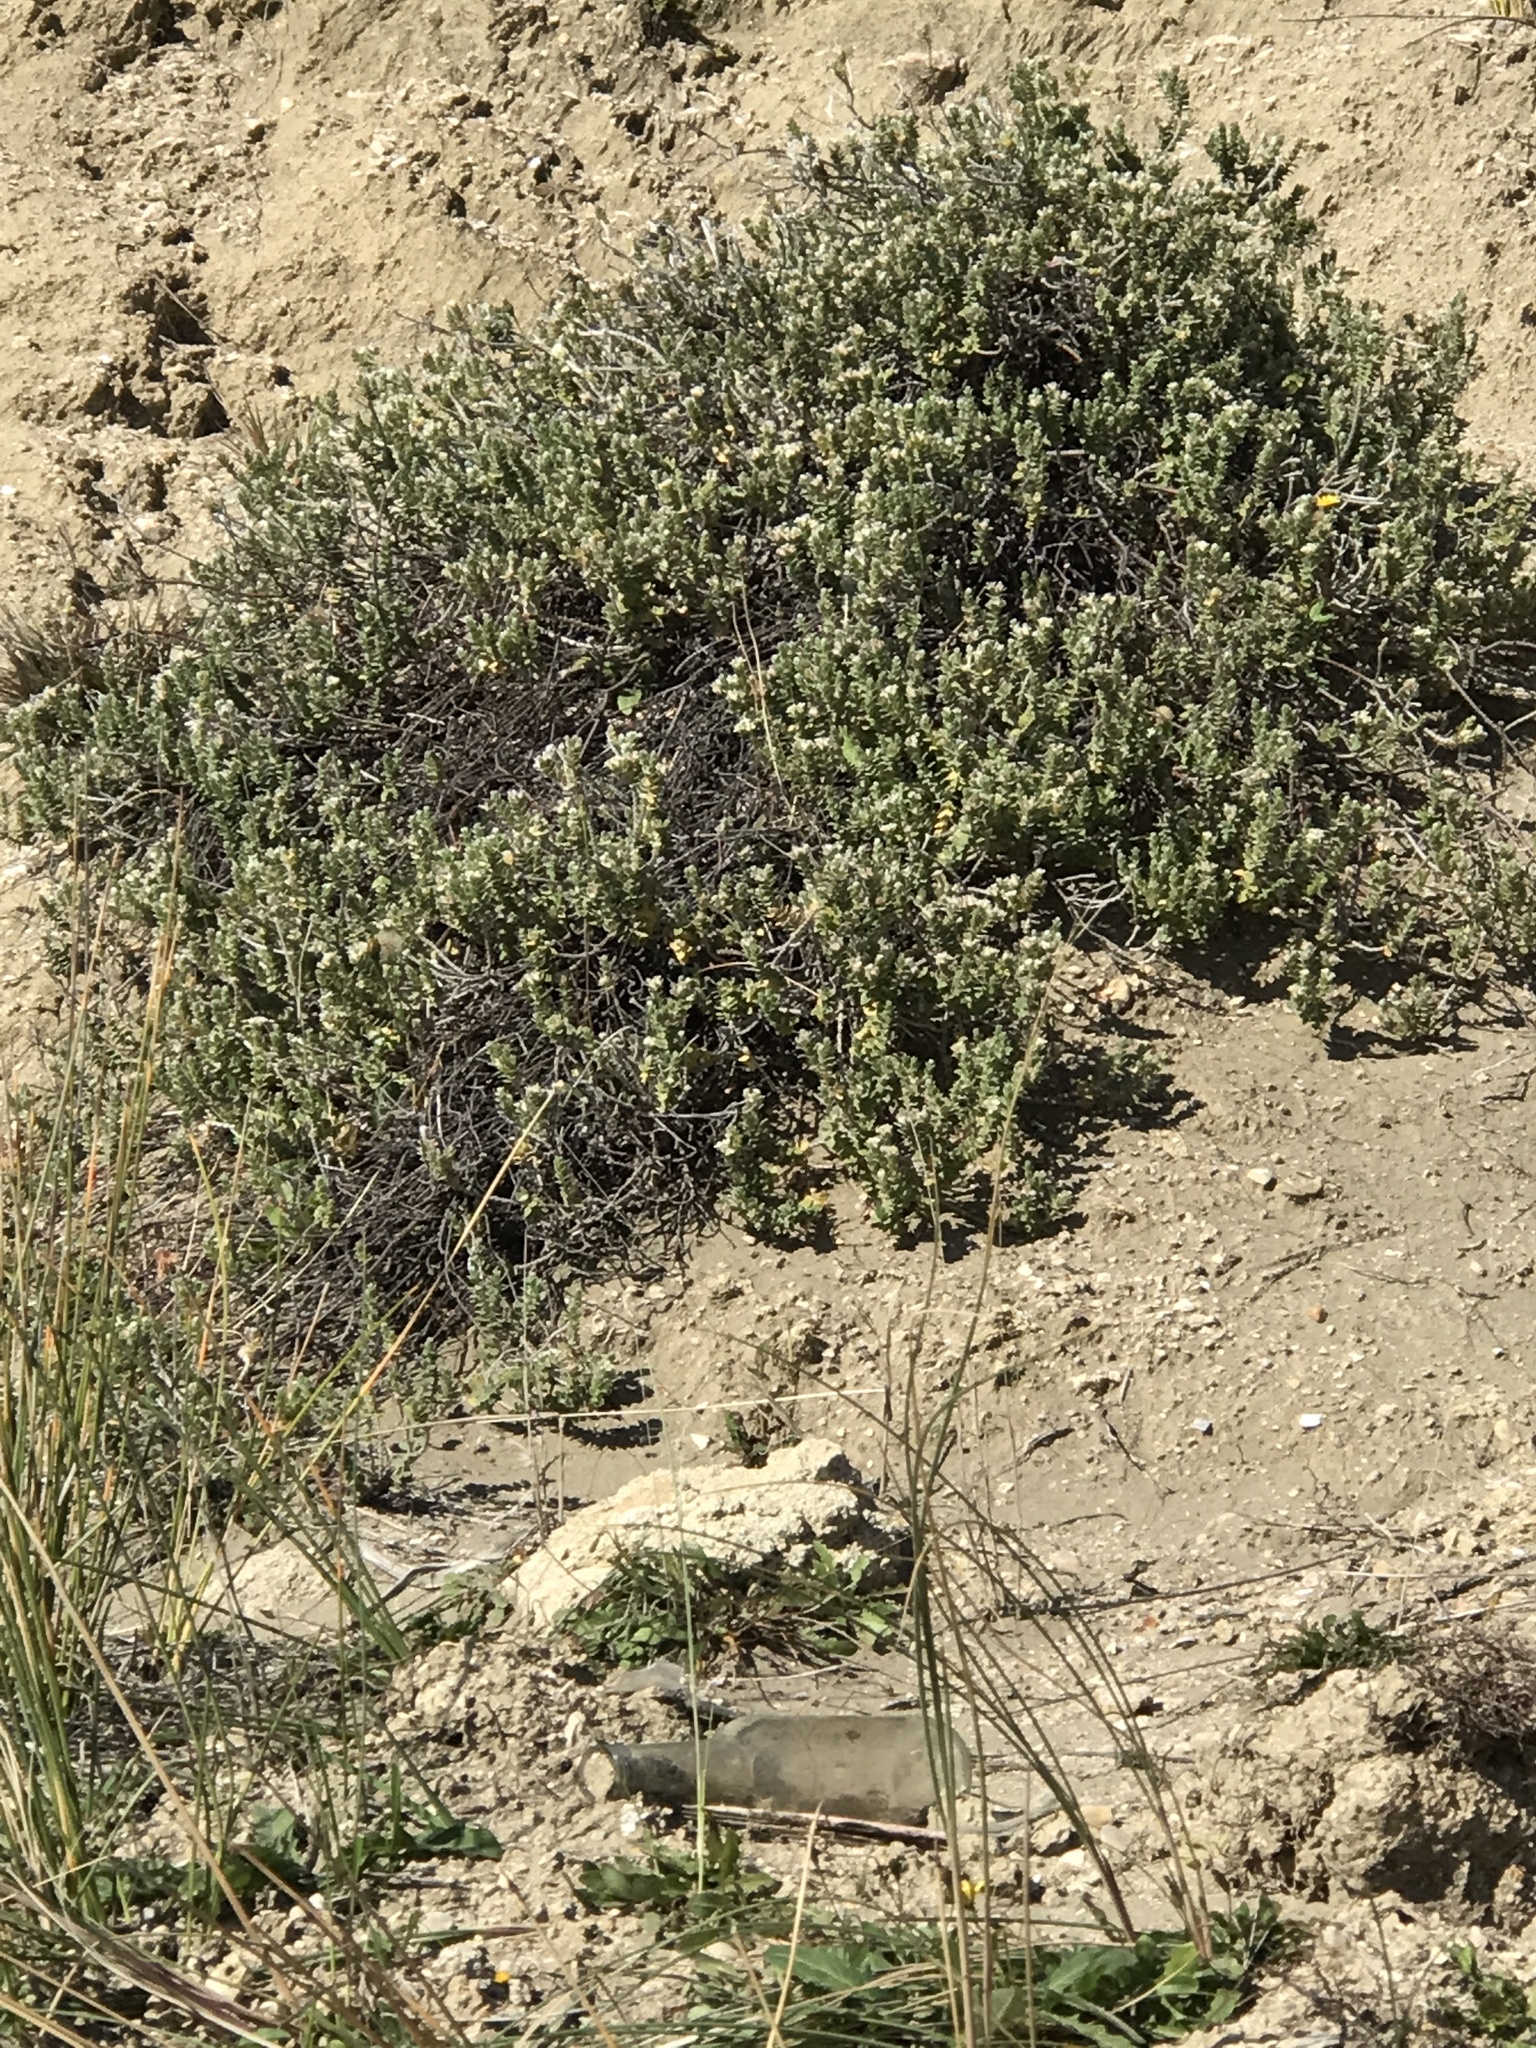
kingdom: Plantae
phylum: Tracheophyta
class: Magnoliopsida
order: Malvales
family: Thymelaeaceae
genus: Pimelea
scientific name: Pimelea villosa
